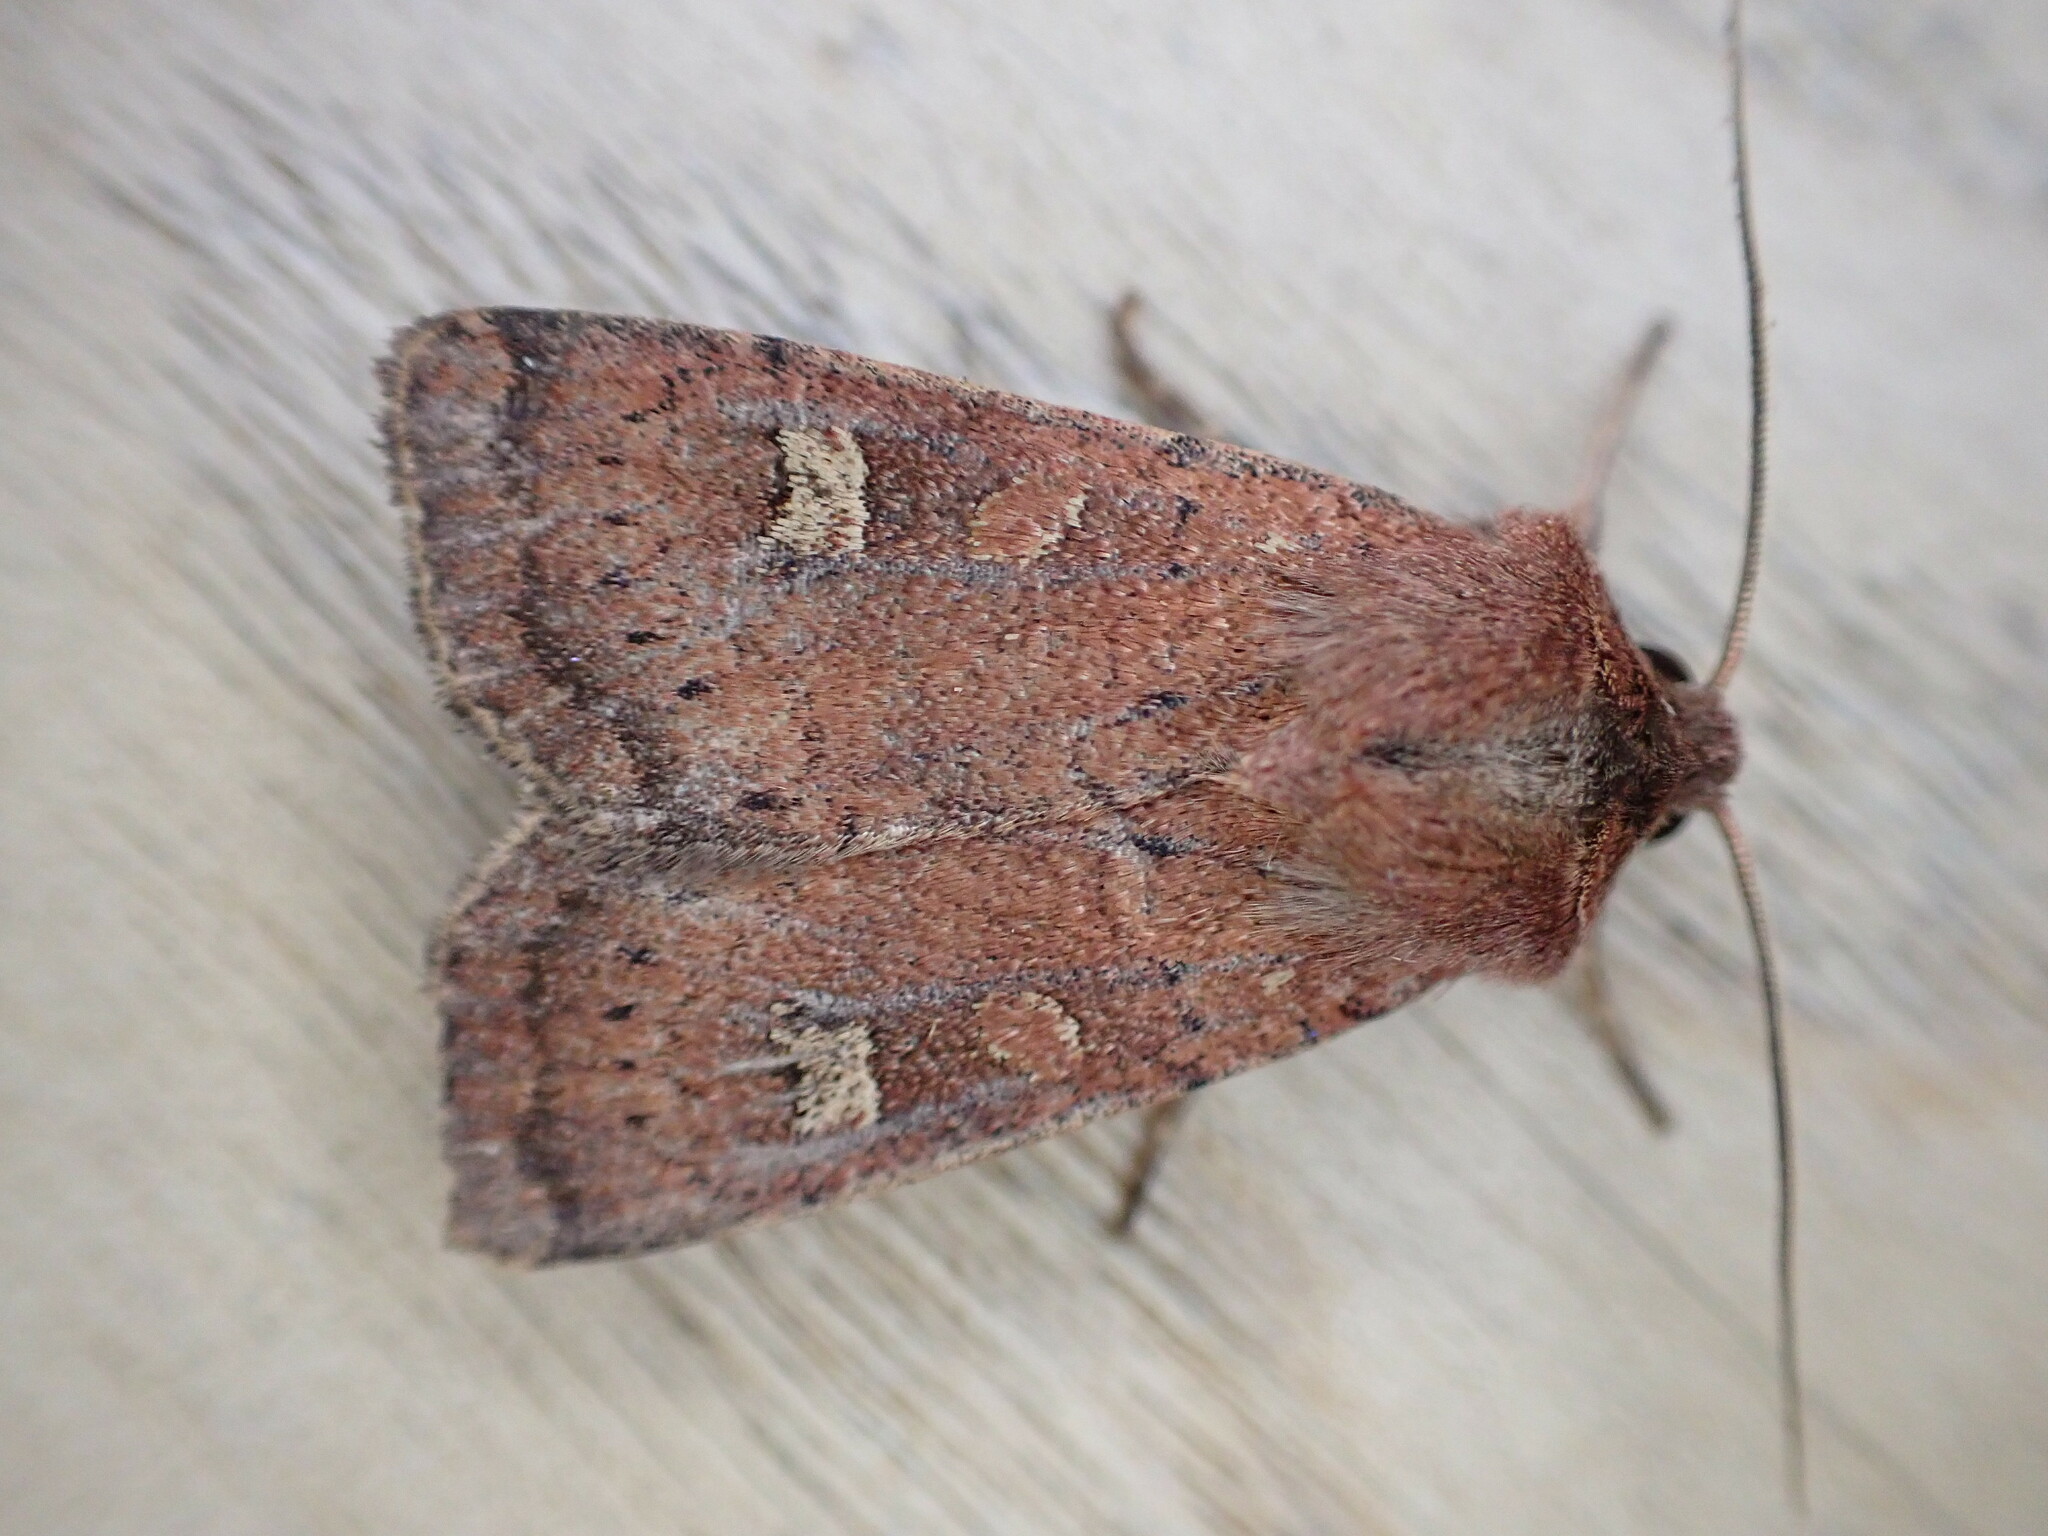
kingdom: Animalia
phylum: Arthropoda
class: Insecta
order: Lepidoptera
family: Noctuidae
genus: Xestia
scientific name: Xestia xanthographa
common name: Square-spot rustic
